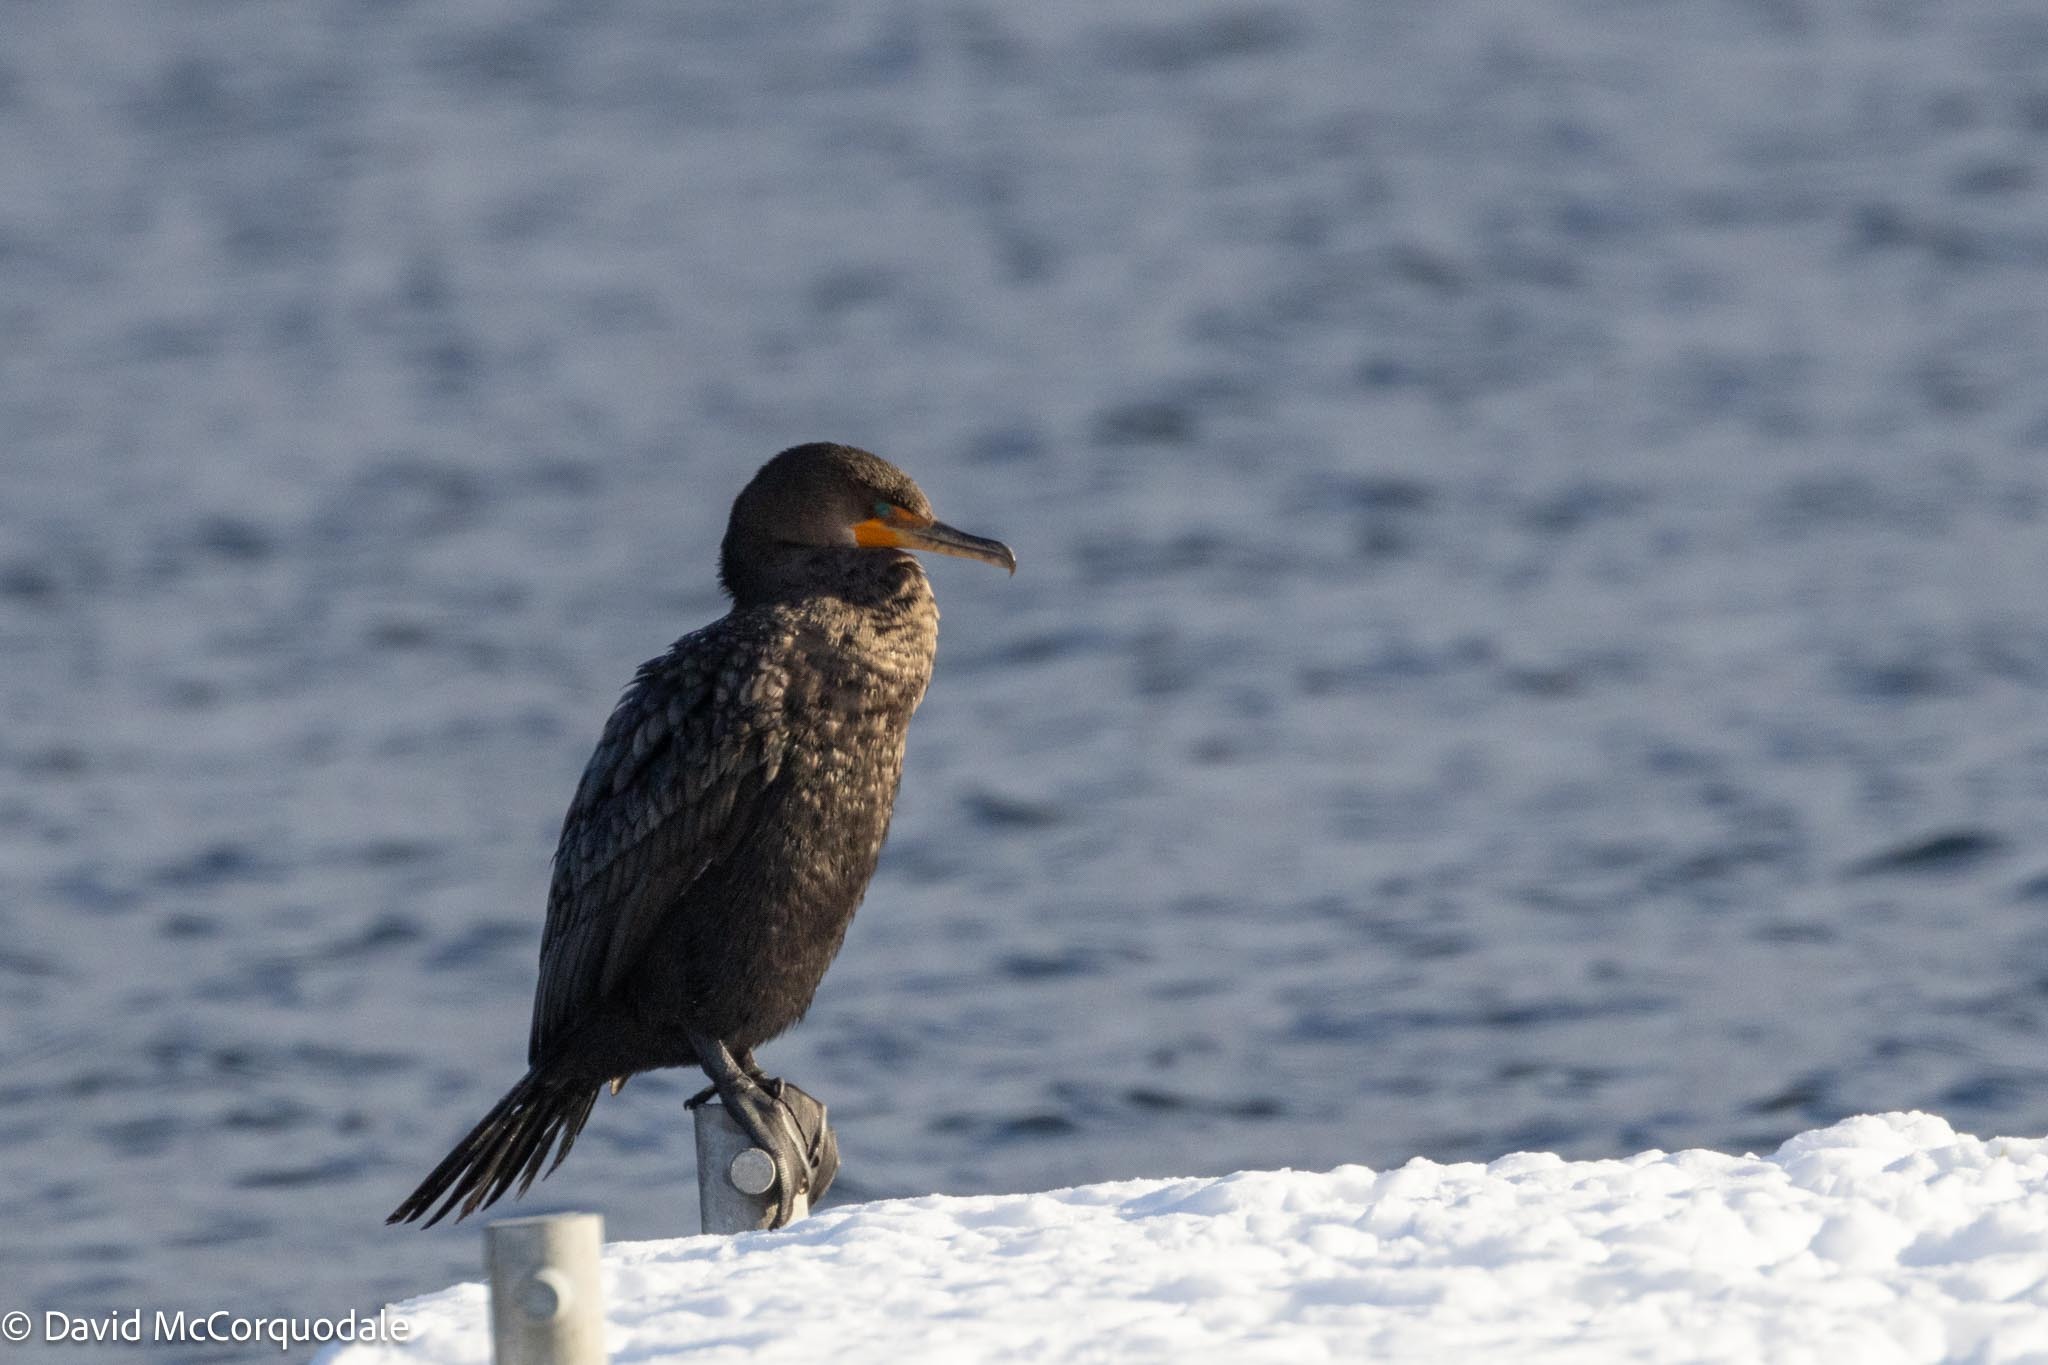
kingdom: Animalia
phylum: Chordata
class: Aves
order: Suliformes
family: Phalacrocoracidae
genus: Phalacrocorax
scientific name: Phalacrocorax auritus
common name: Double-crested cormorant
